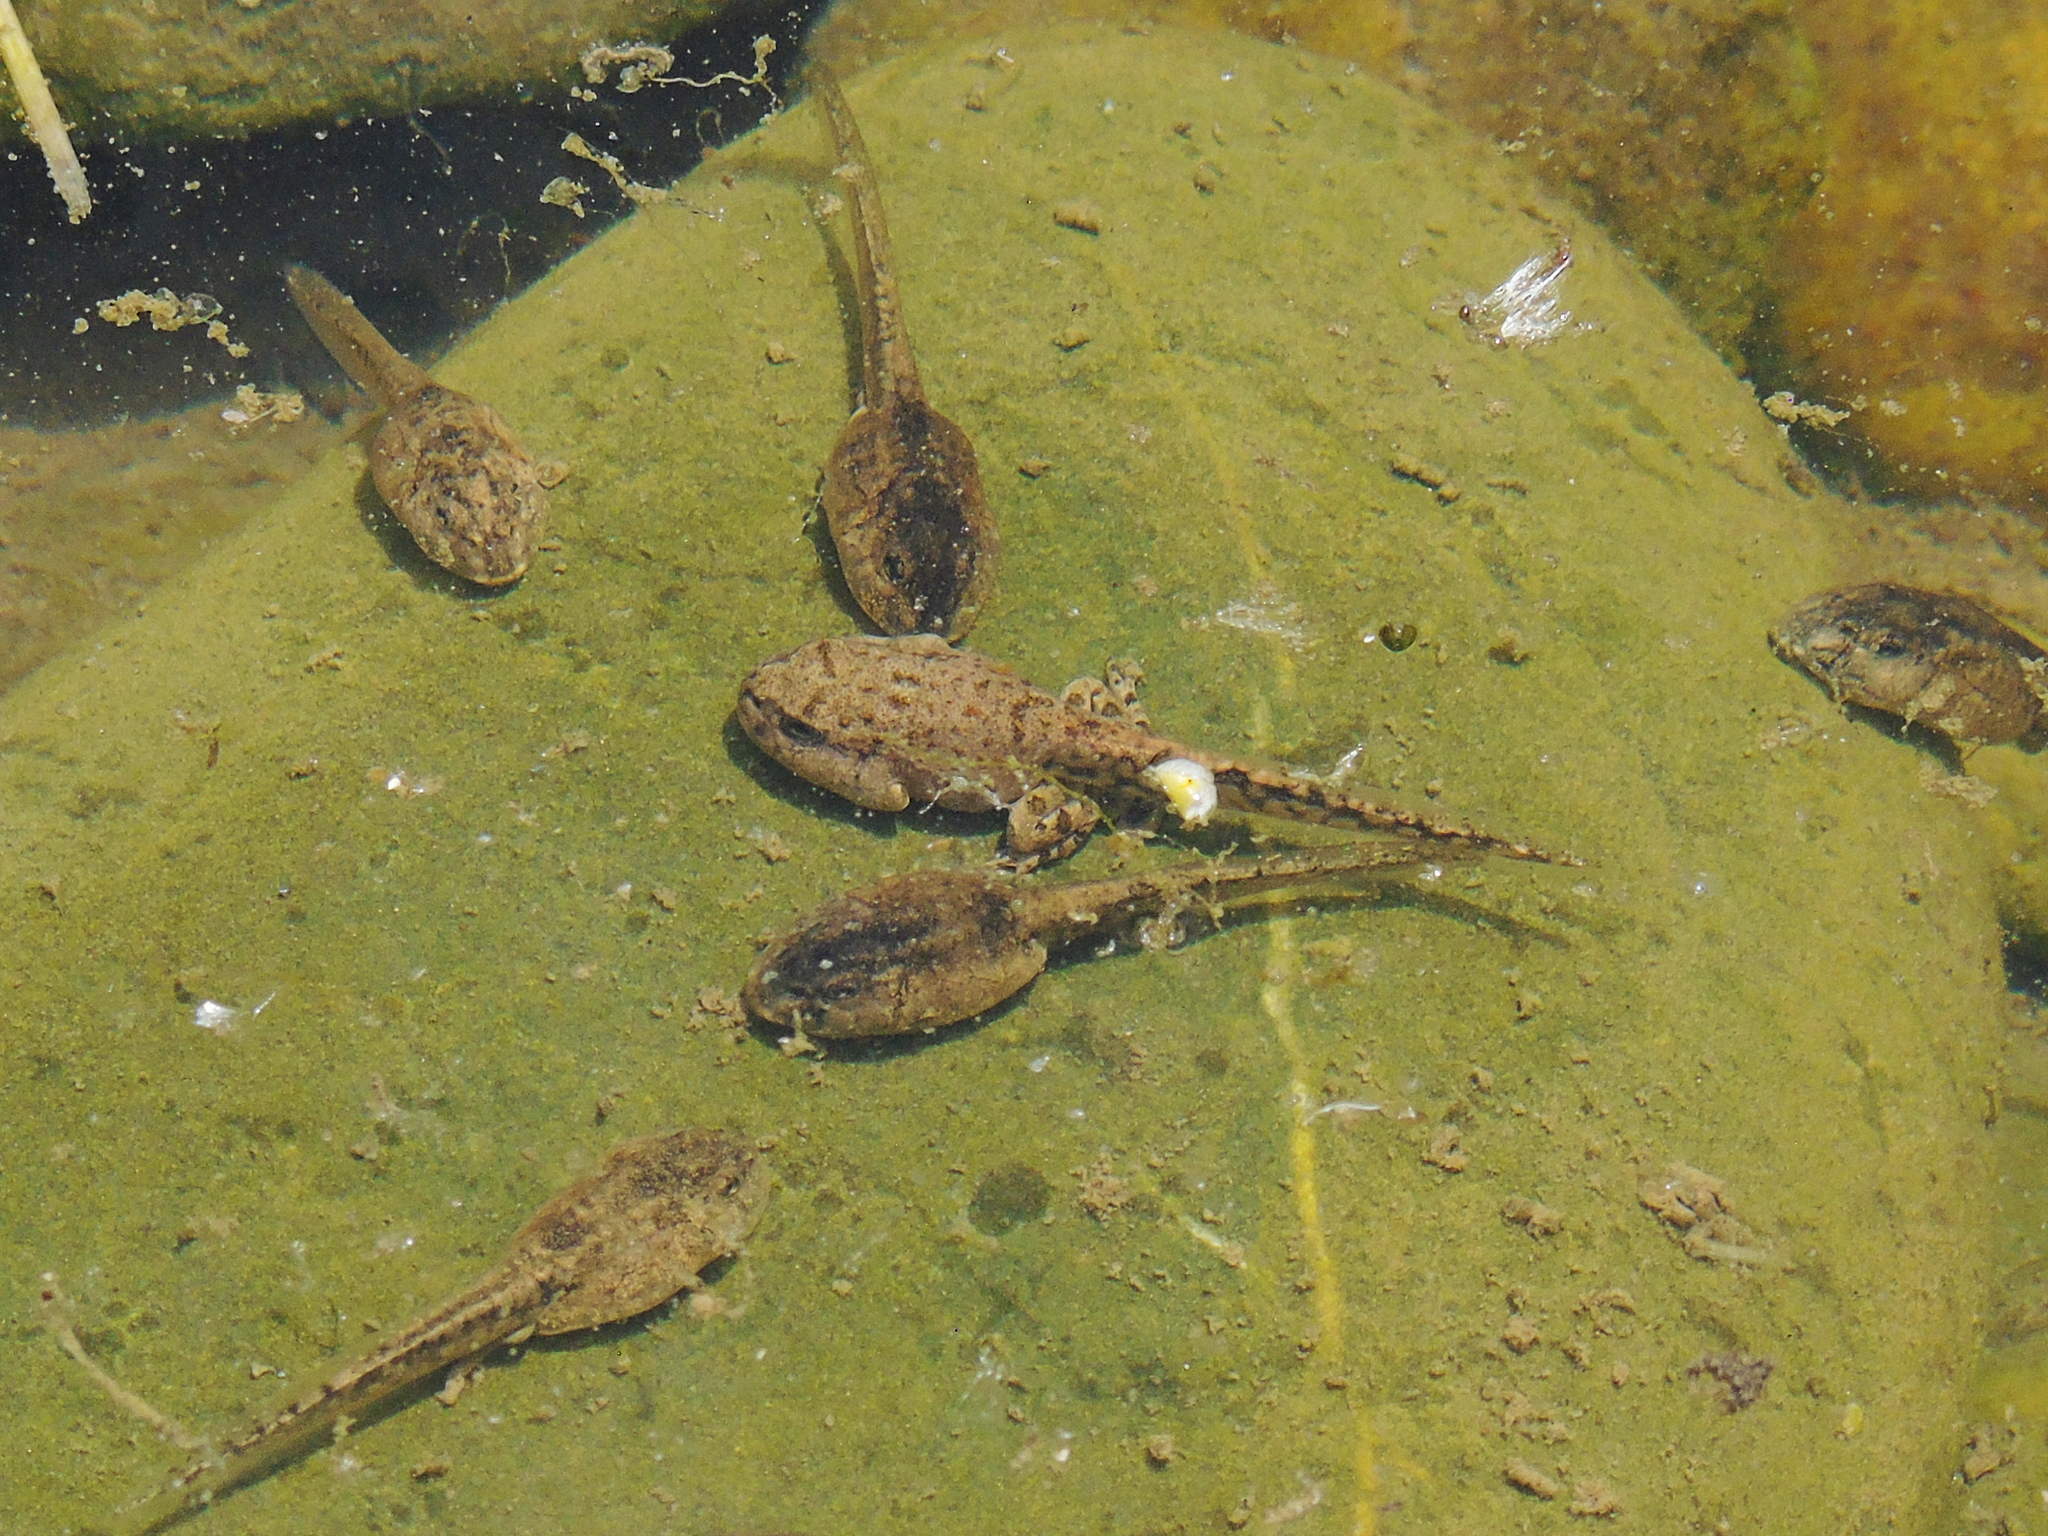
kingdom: Animalia
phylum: Chordata
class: Amphibia
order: Anura
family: Ranidae
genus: Pelophylax
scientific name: Pelophylax ridibundus
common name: Marsh frog
